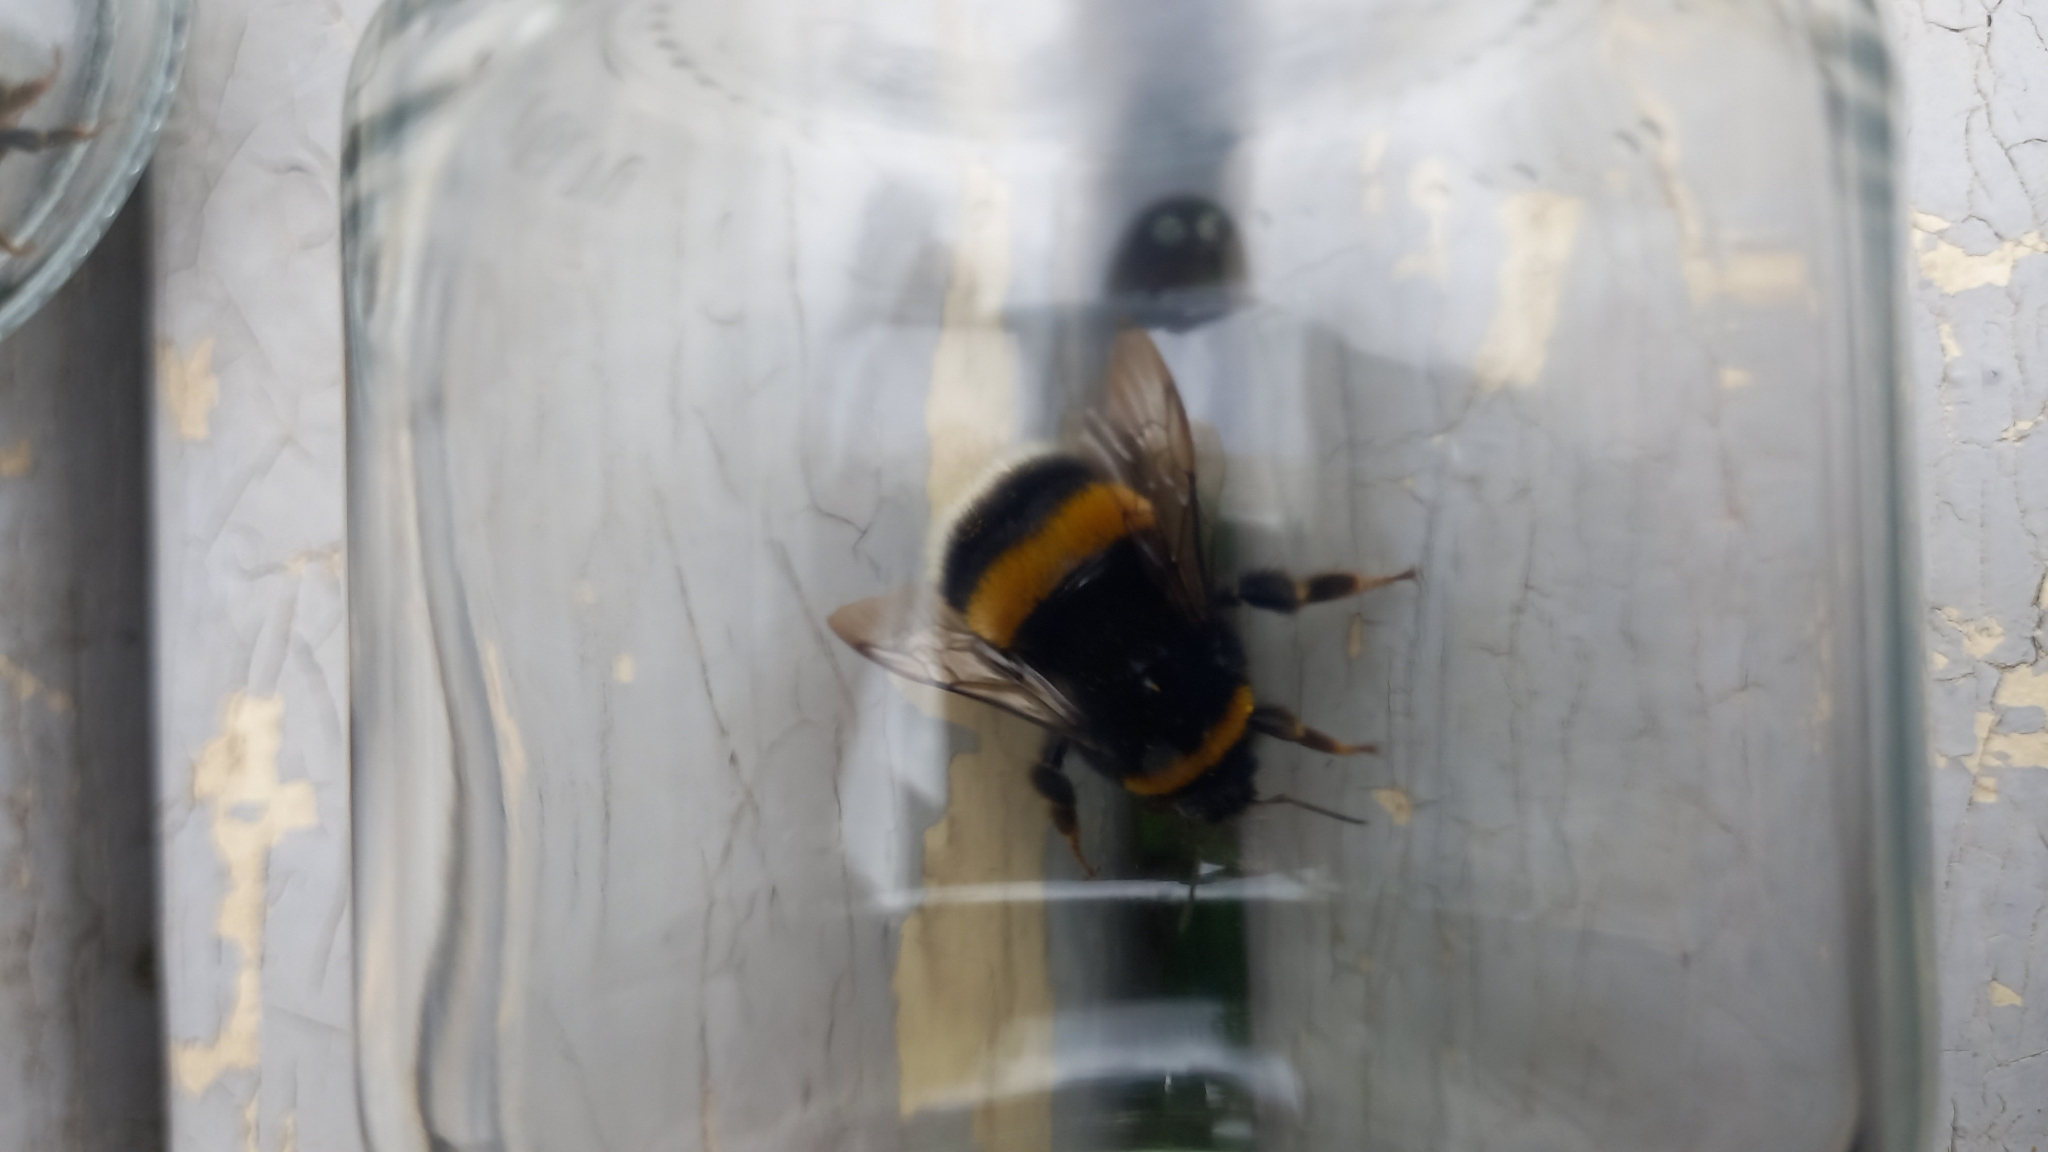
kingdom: Animalia
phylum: Arthropoda
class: Insecta
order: Hymenoptera
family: Apidae
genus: Bombus
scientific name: Bombus terrestris
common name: Buff-tailed bumblebee
